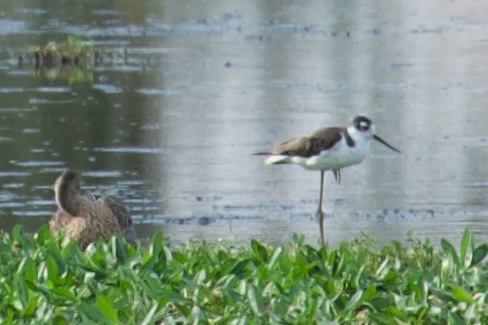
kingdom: Animalia
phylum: Chordata
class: Aves
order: Charadriiformes
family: Recurvirostridae
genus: Himantopus
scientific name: Himantopus mexicanus
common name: Black-necked stilt
